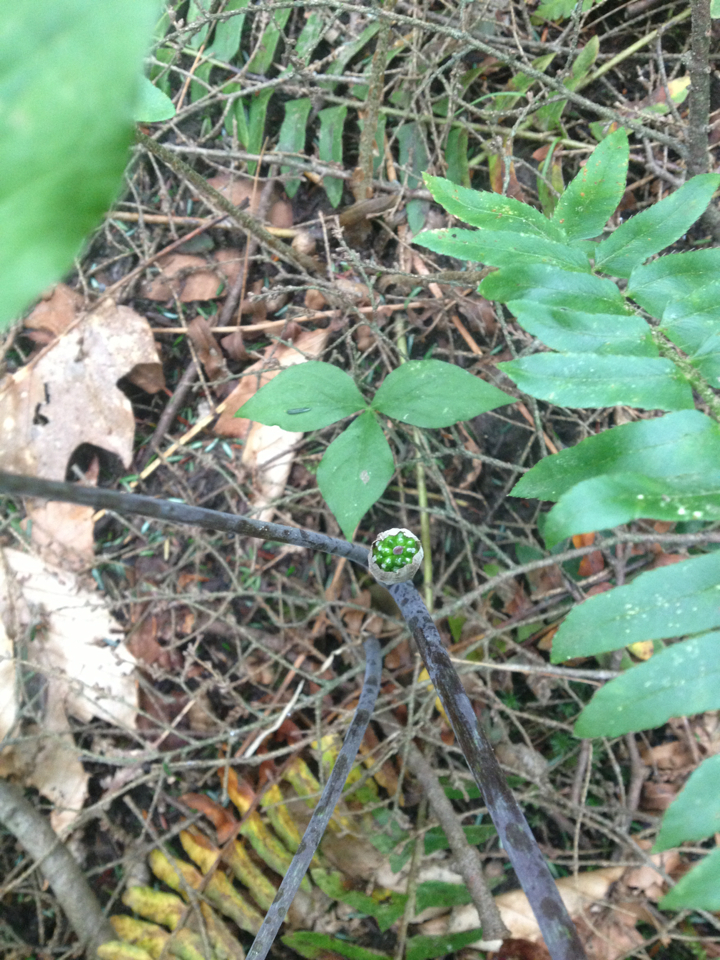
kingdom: Plantae
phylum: Tracheophyta
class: Liliopsida
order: Alismatales
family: Araceae
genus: Arisaema
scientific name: Arisaema triphyllum
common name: Jack-in-the-pulpit
